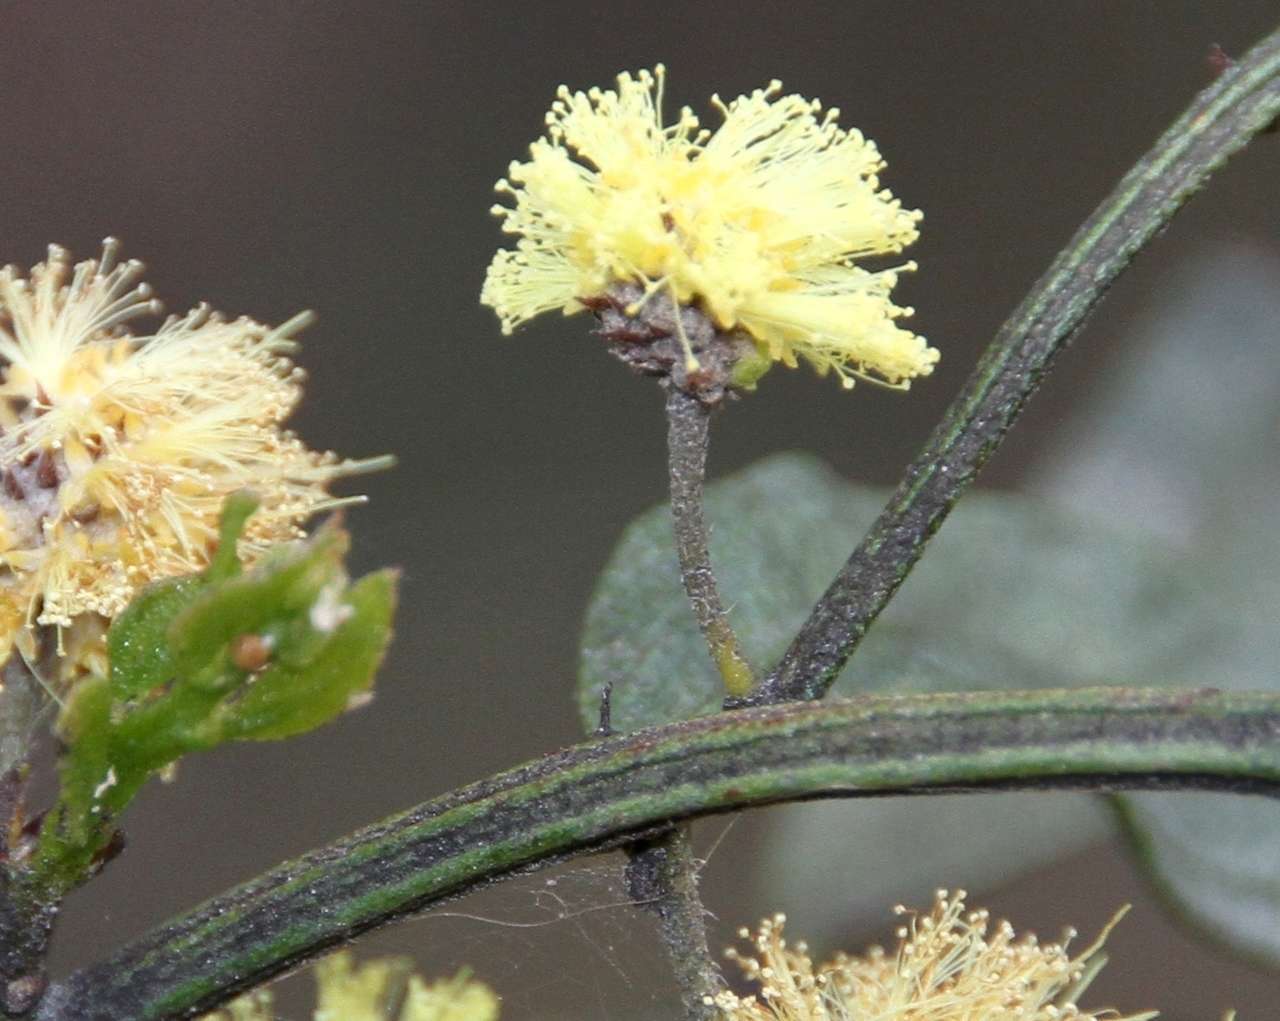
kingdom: Plantae
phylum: Tracheophyta
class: Magnoliopsida
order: Fabales
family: Fabaceae
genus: Acacia
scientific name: Acacia verniciflua
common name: Varnish wattle
